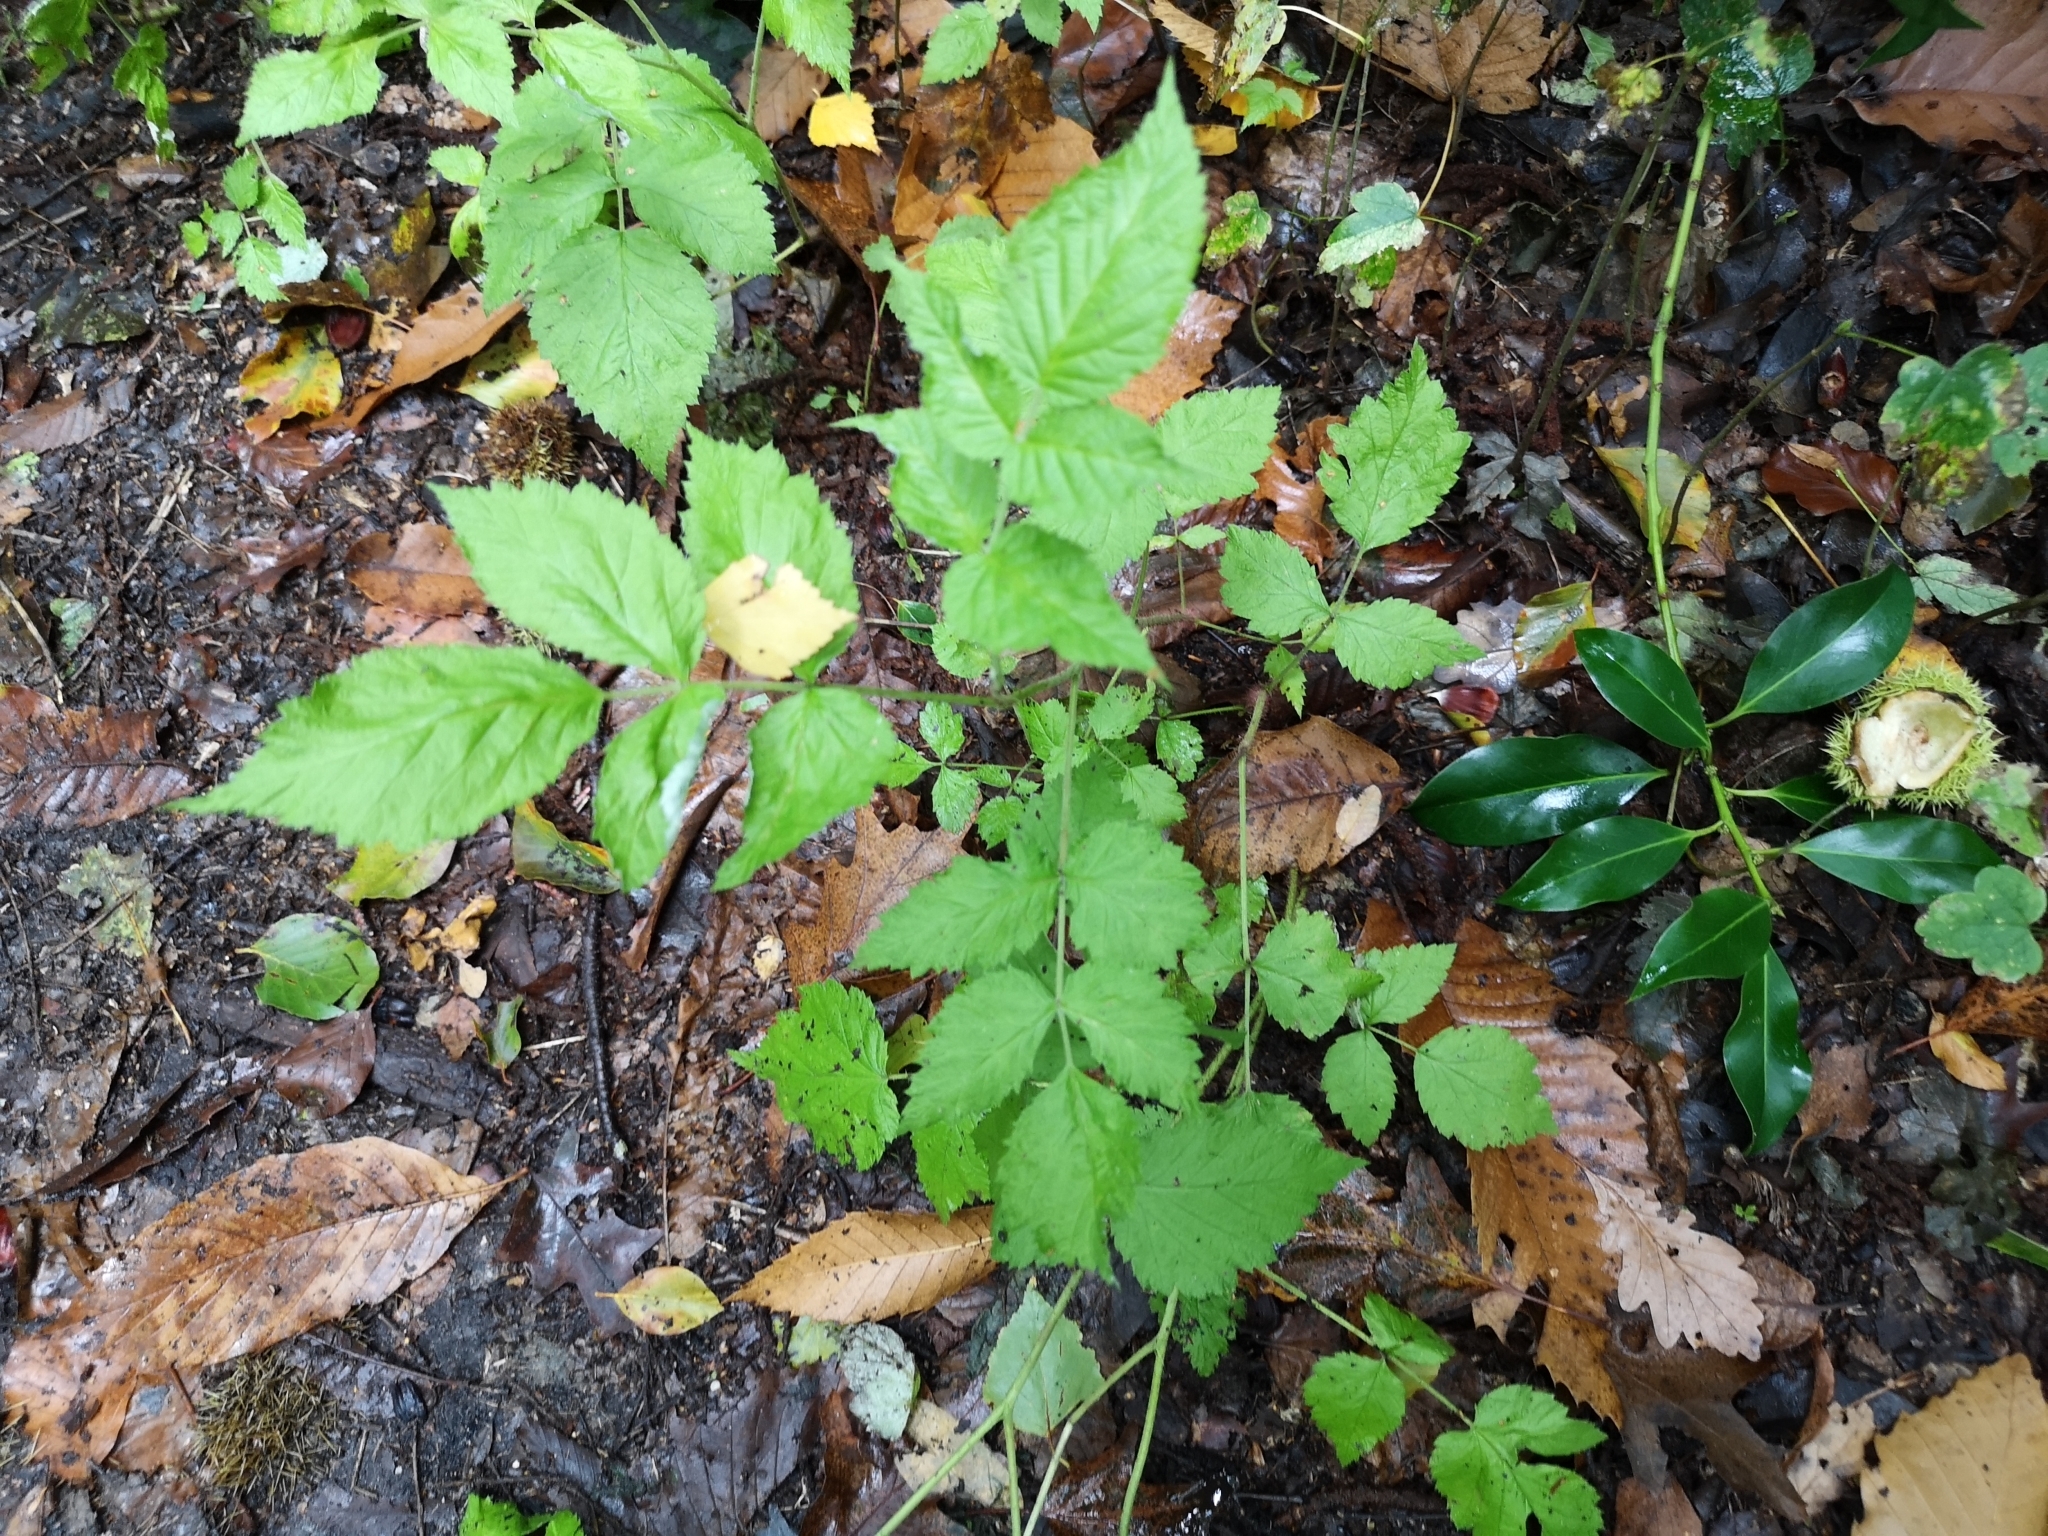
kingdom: Plantae
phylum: Tracheophyta
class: Magnoliopsida
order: Rosales
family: Rosaceae
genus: Rubus
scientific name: Rubus idaeus
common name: Raspberry
